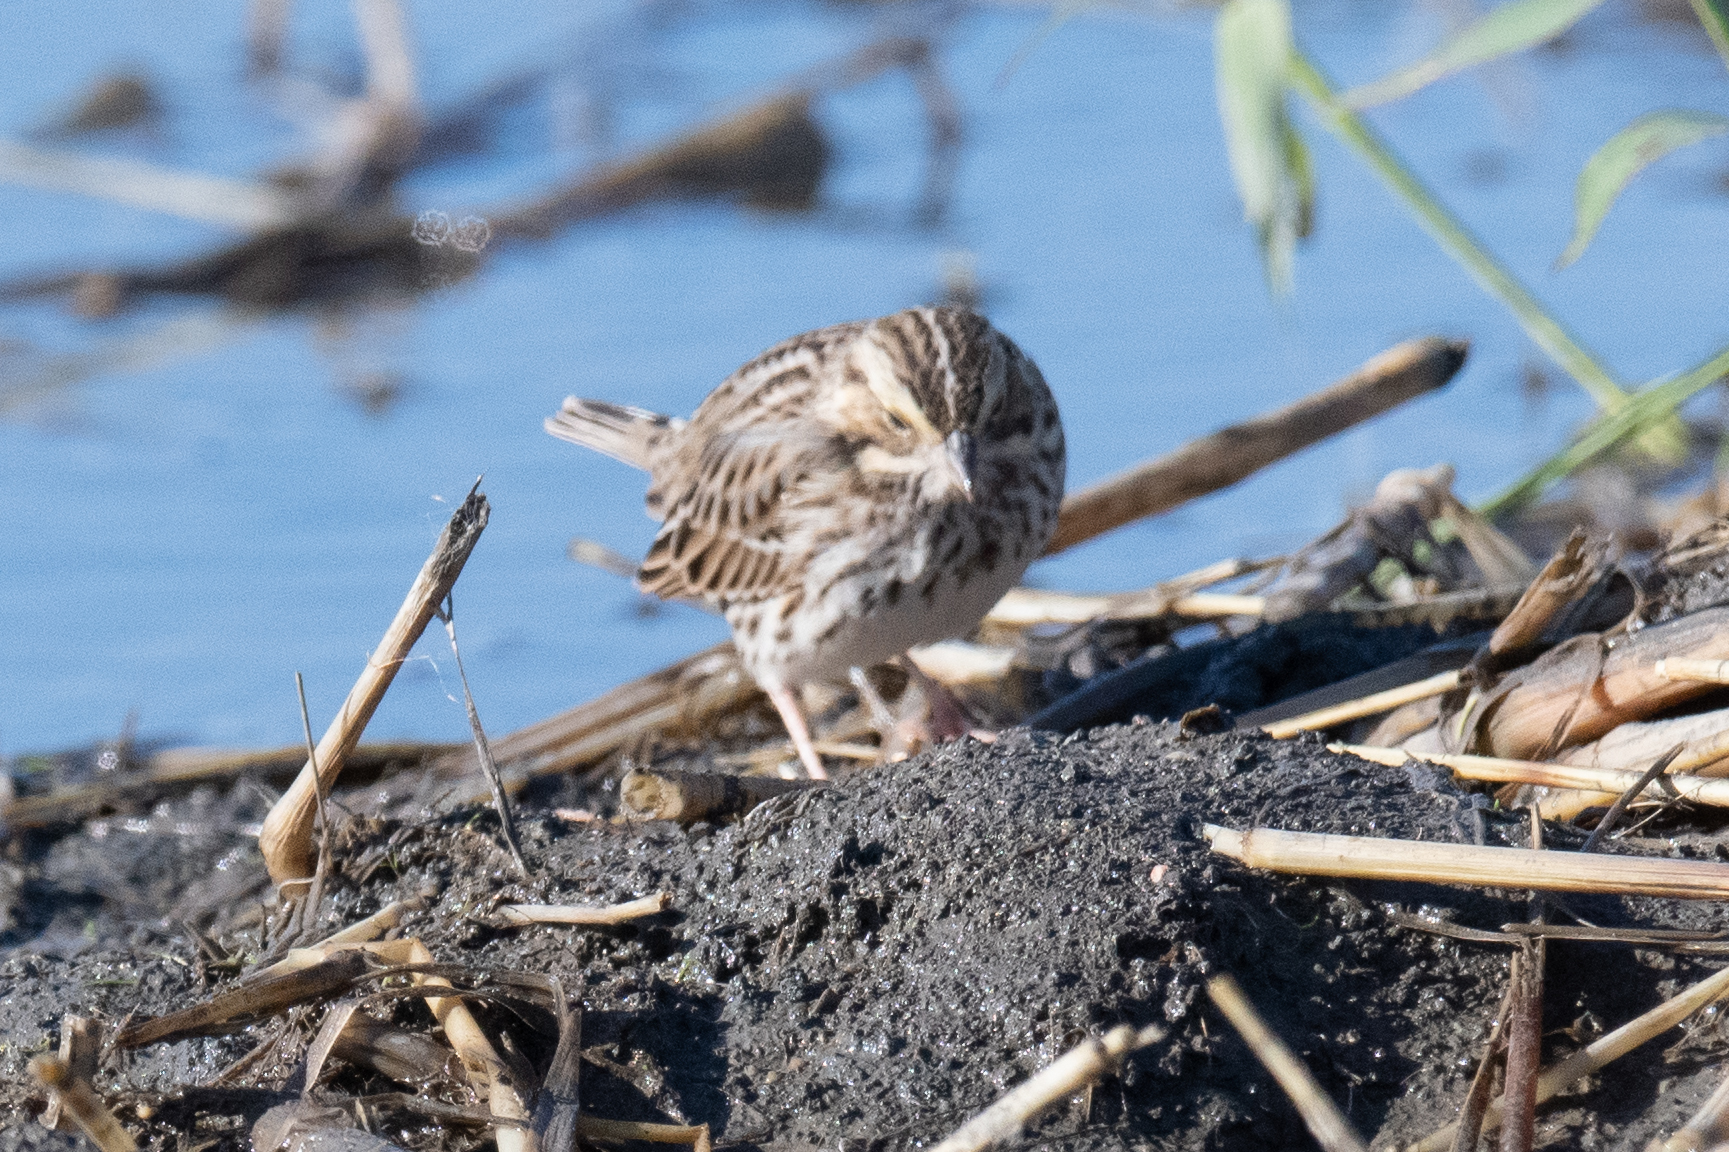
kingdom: Animalia
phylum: Chordata
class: Aves
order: Passeriformes
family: Passerellidae
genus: Passerculus
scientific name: Passerculus sandwichensis
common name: Savannah sparrow
